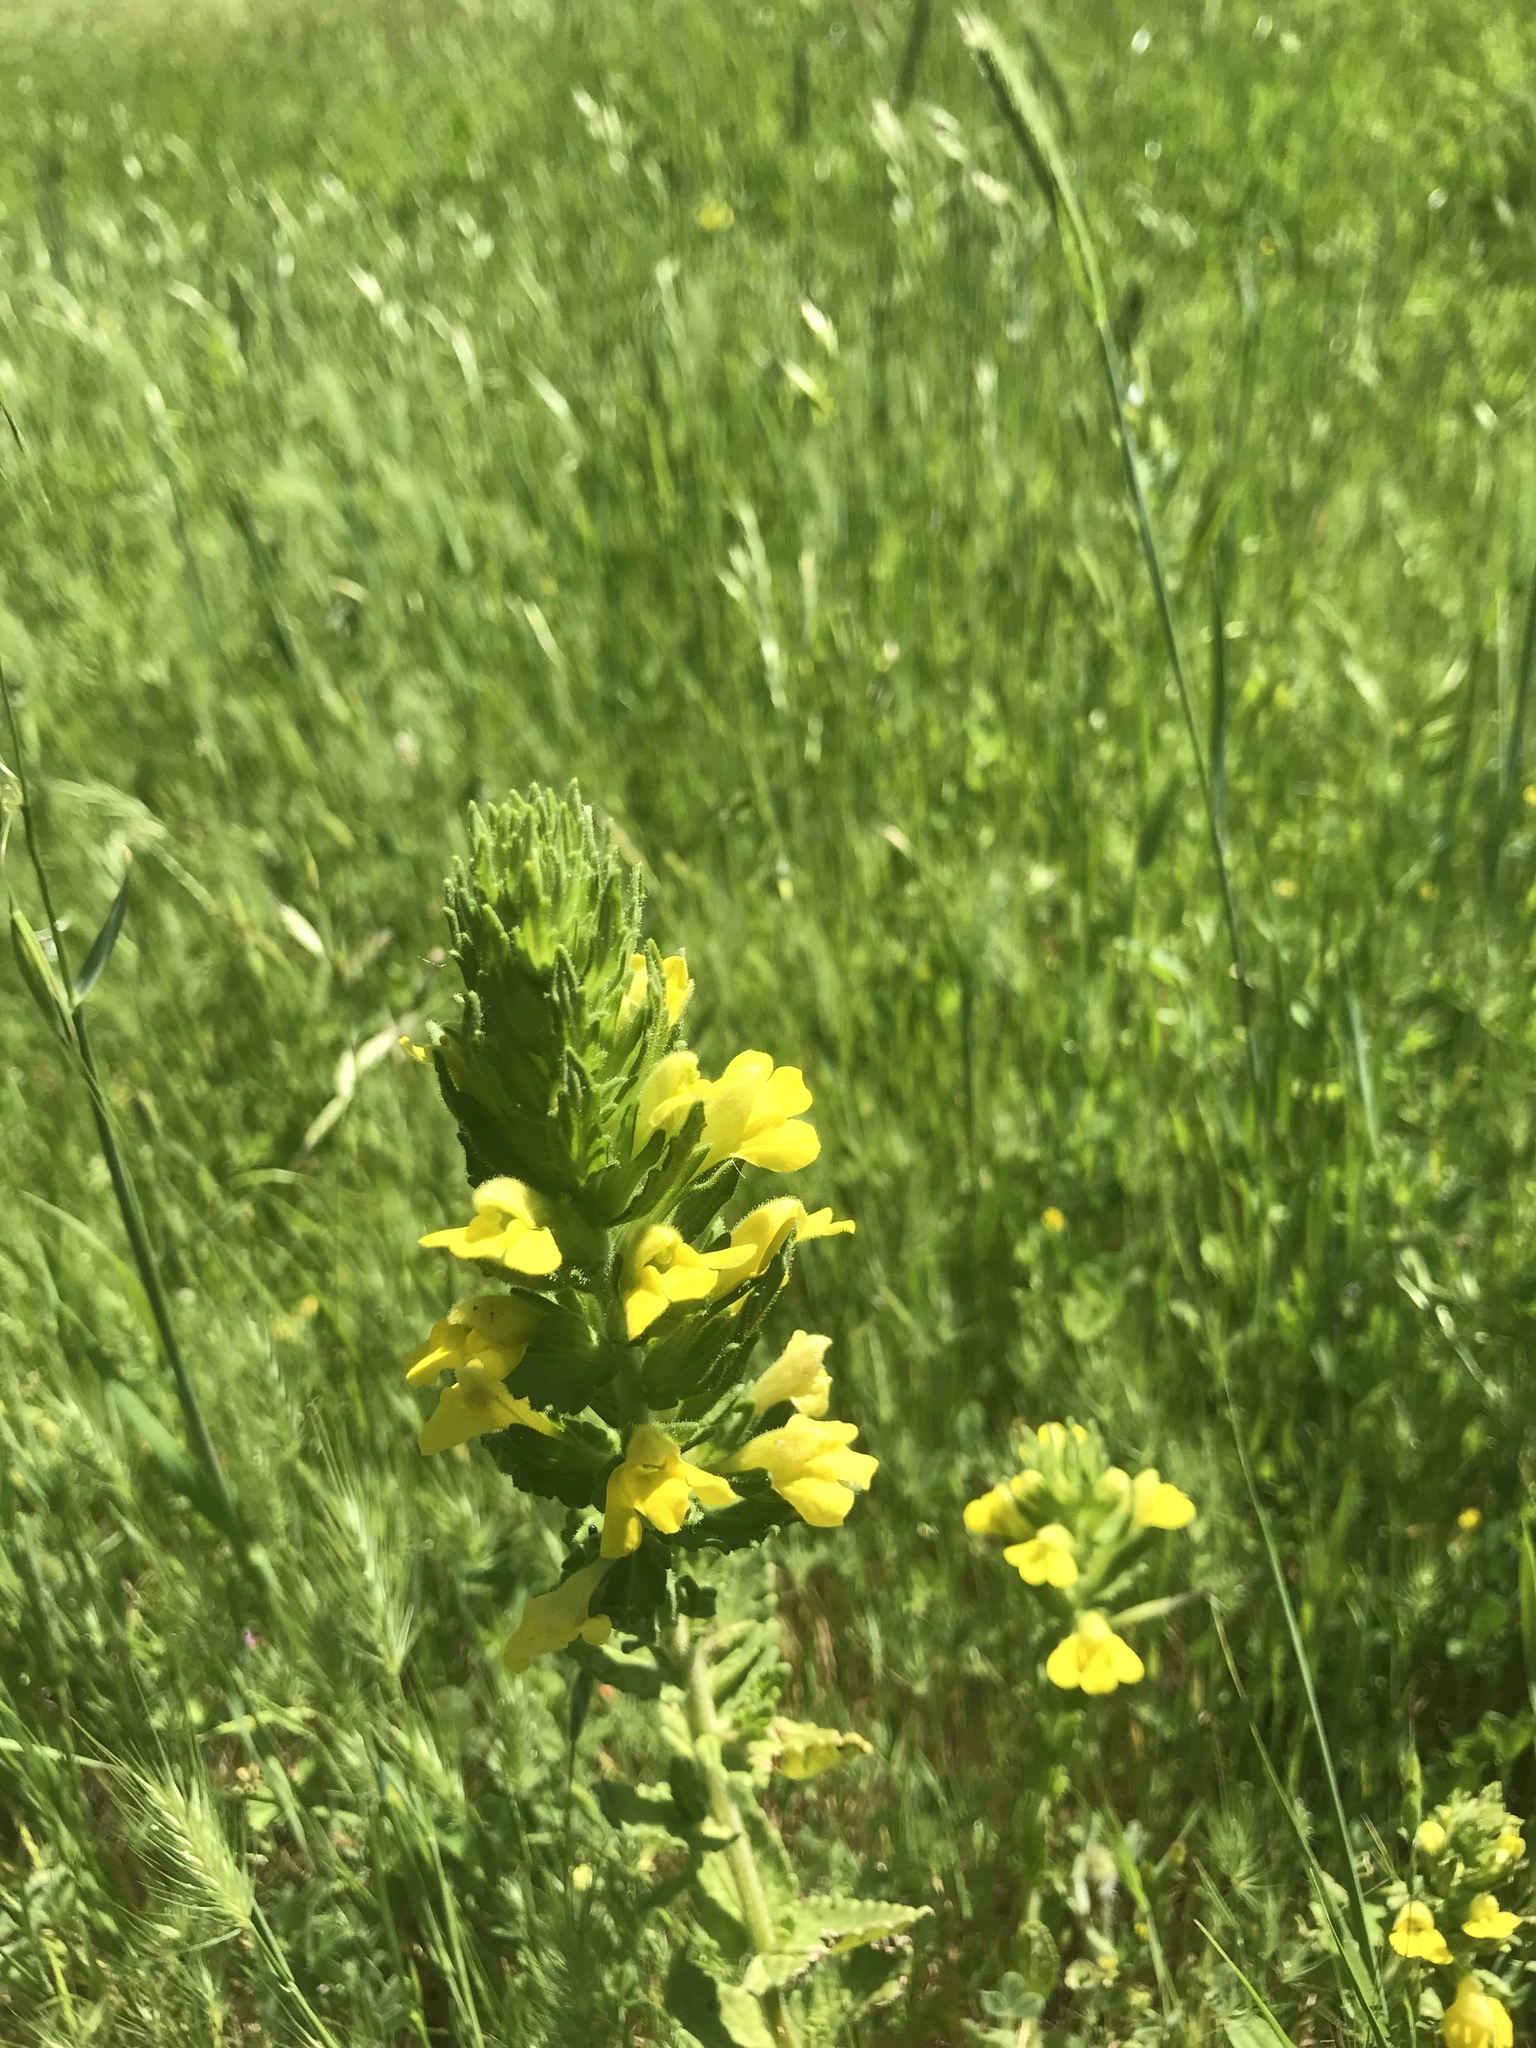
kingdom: Plantae
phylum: Tracheophyta
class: Magnoliopsida
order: Lamiales
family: Orobanchaceae
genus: Bellardia
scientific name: Bellardia viscosa
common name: Sticky parentucellia
